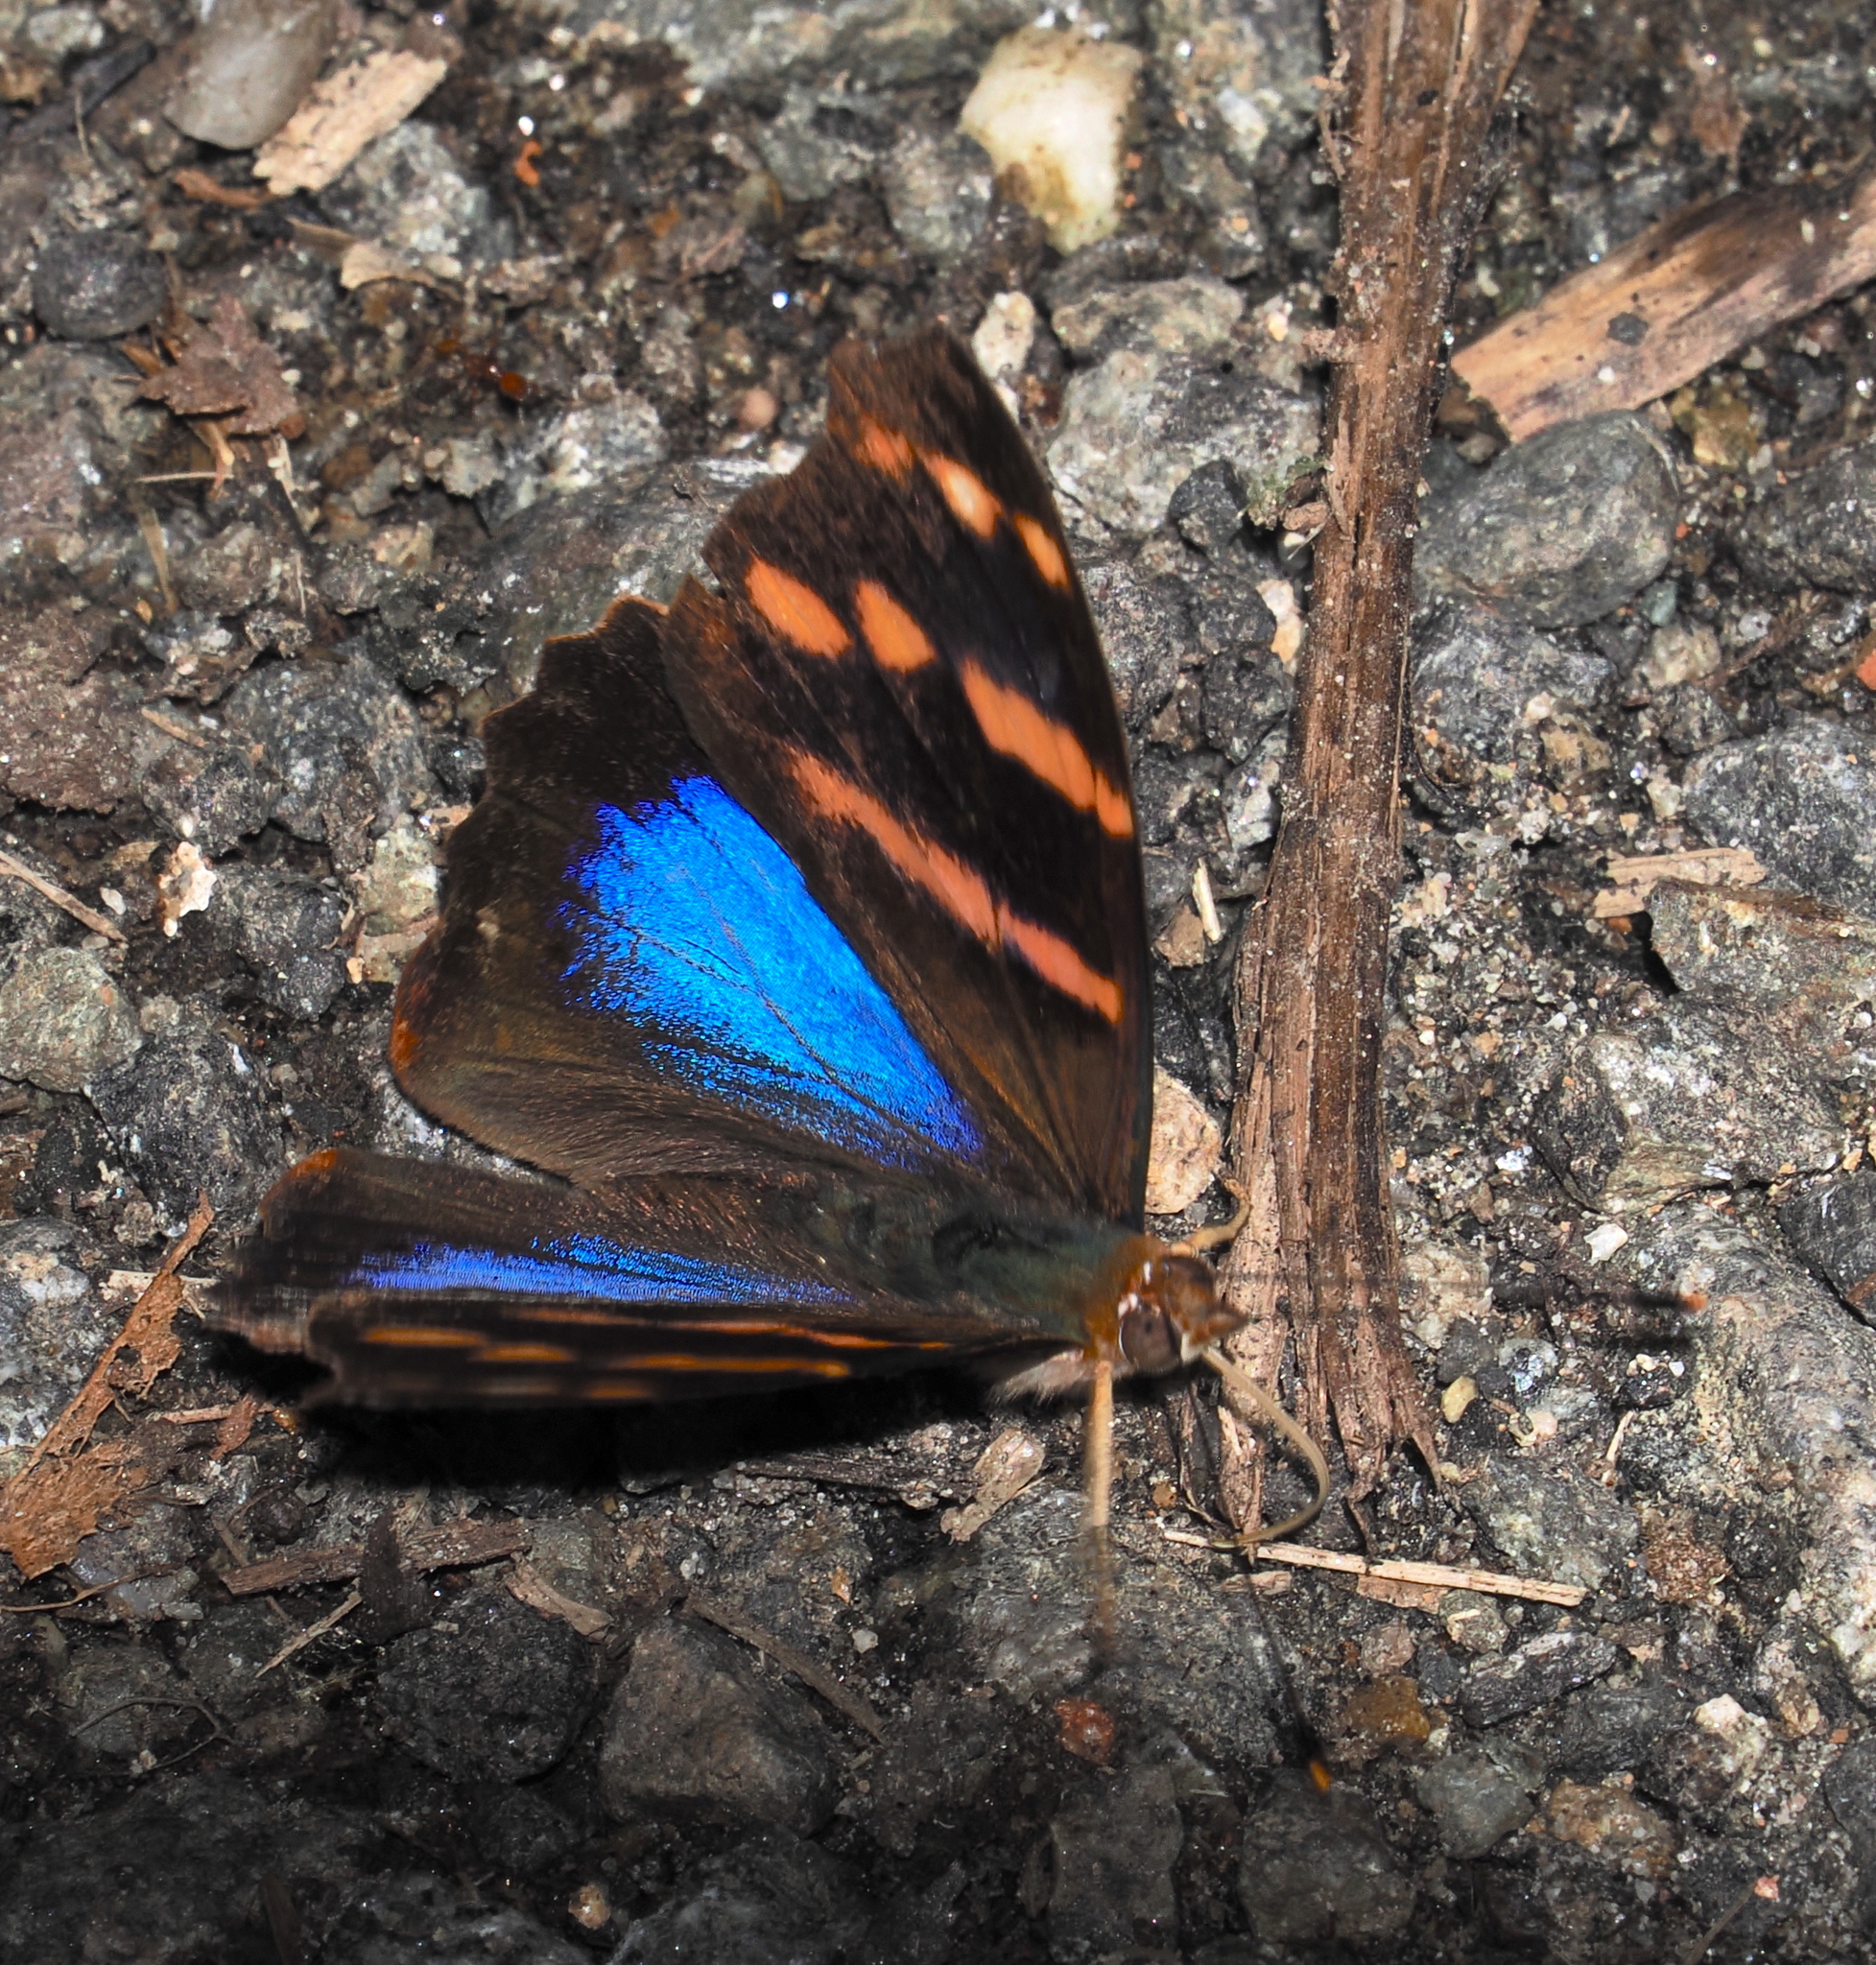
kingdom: Animalia
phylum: Arthropoda
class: Insecta
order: Lepidoptera
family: Nymphalidae
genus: Epiphile
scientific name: Epiphile orea
